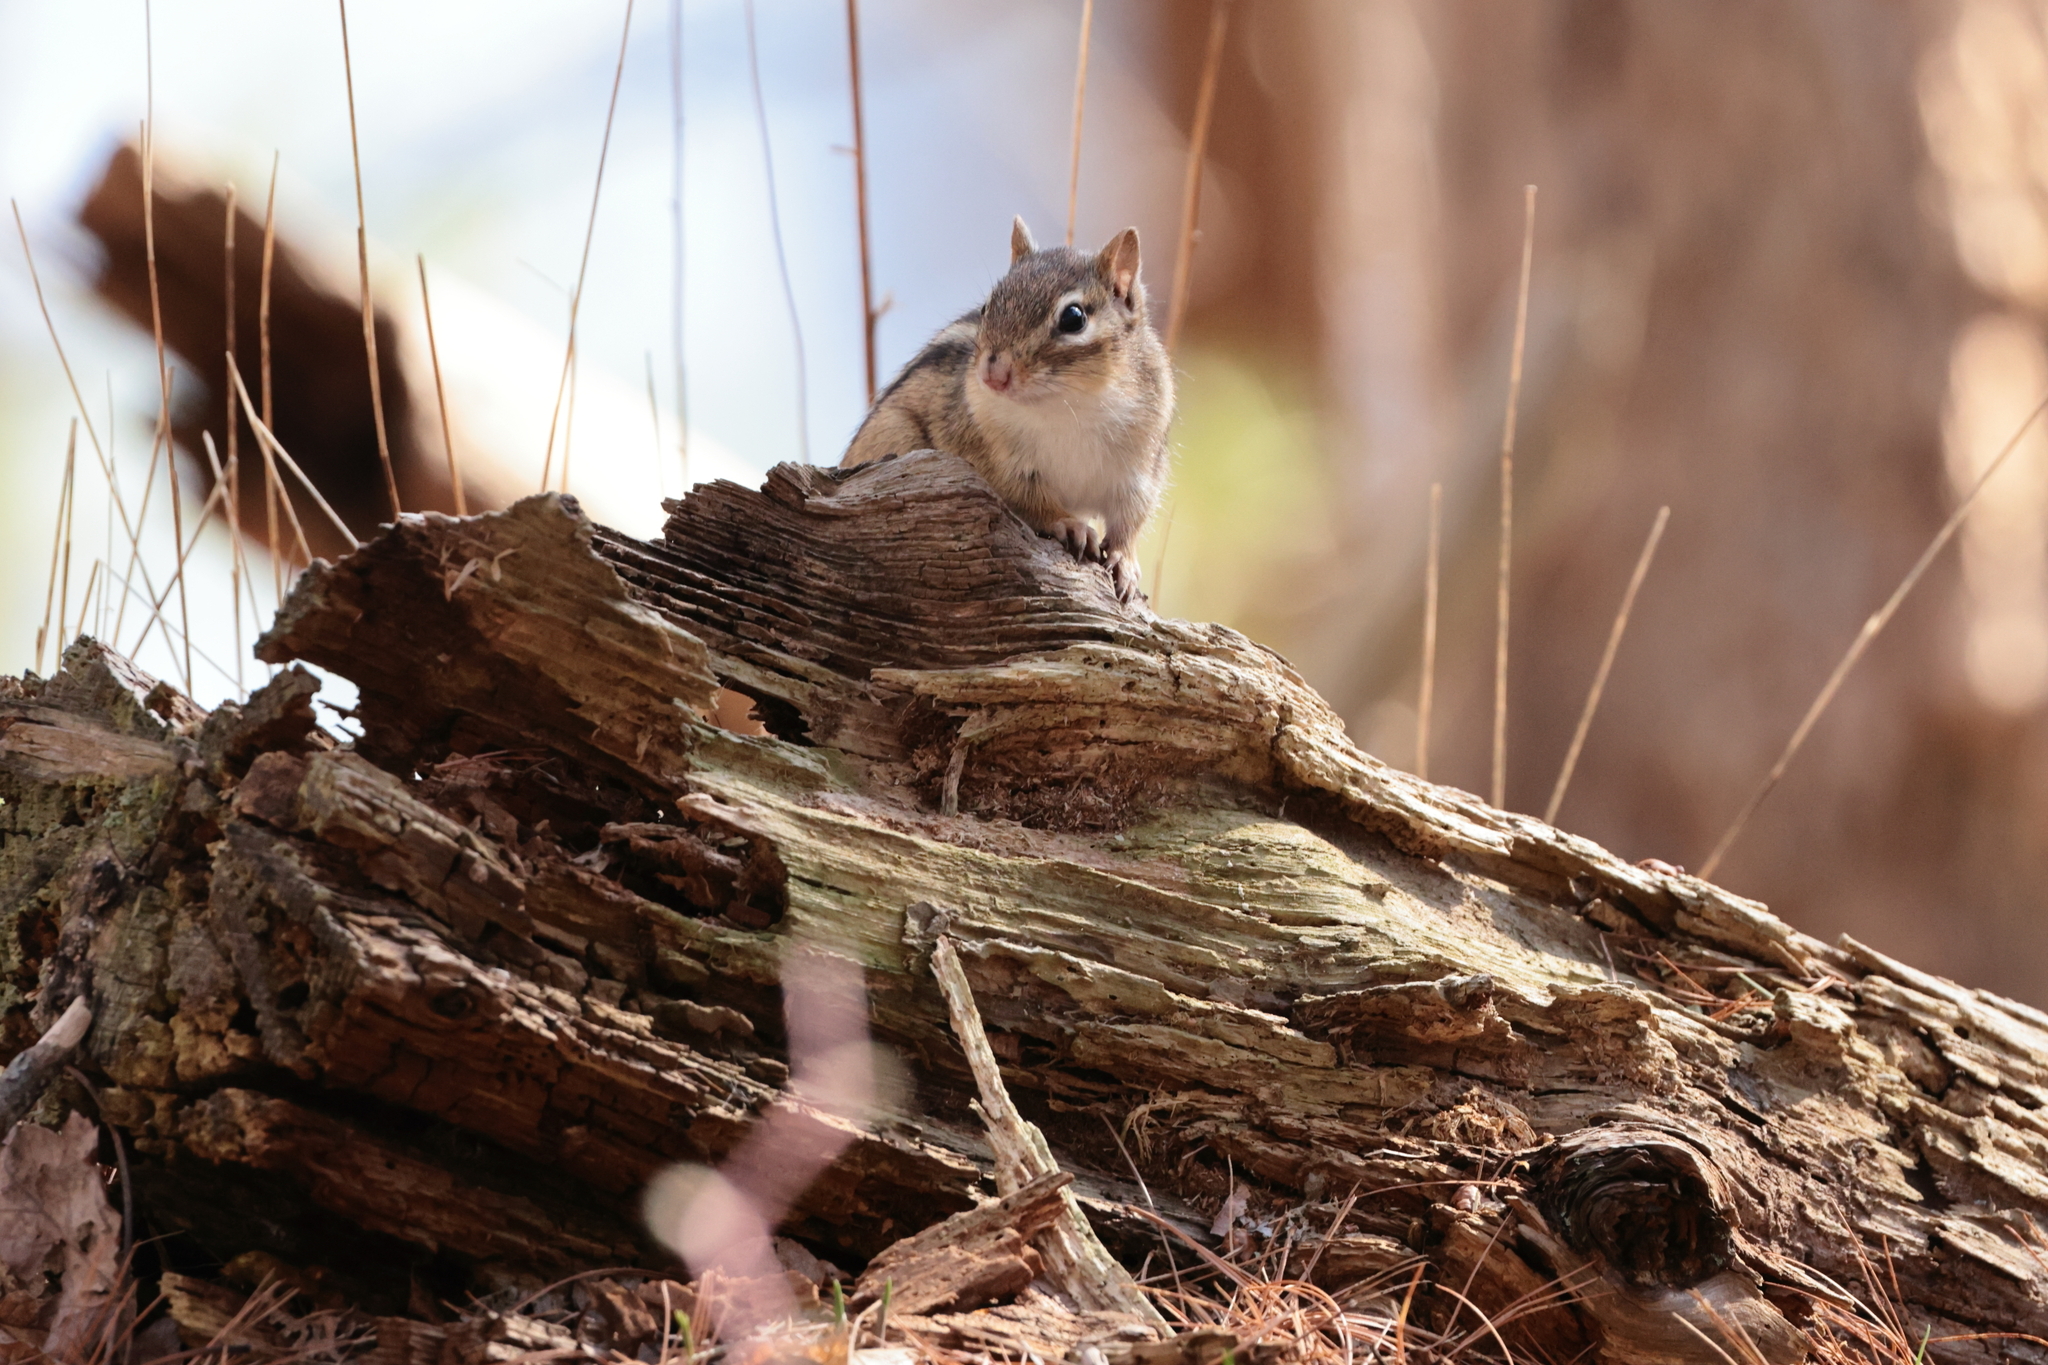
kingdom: Animalia
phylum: Chordata
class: Mammalia
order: Rodentia
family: Sciuridae
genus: Tamias
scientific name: Tamias striatus
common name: Eastern chipmunk
